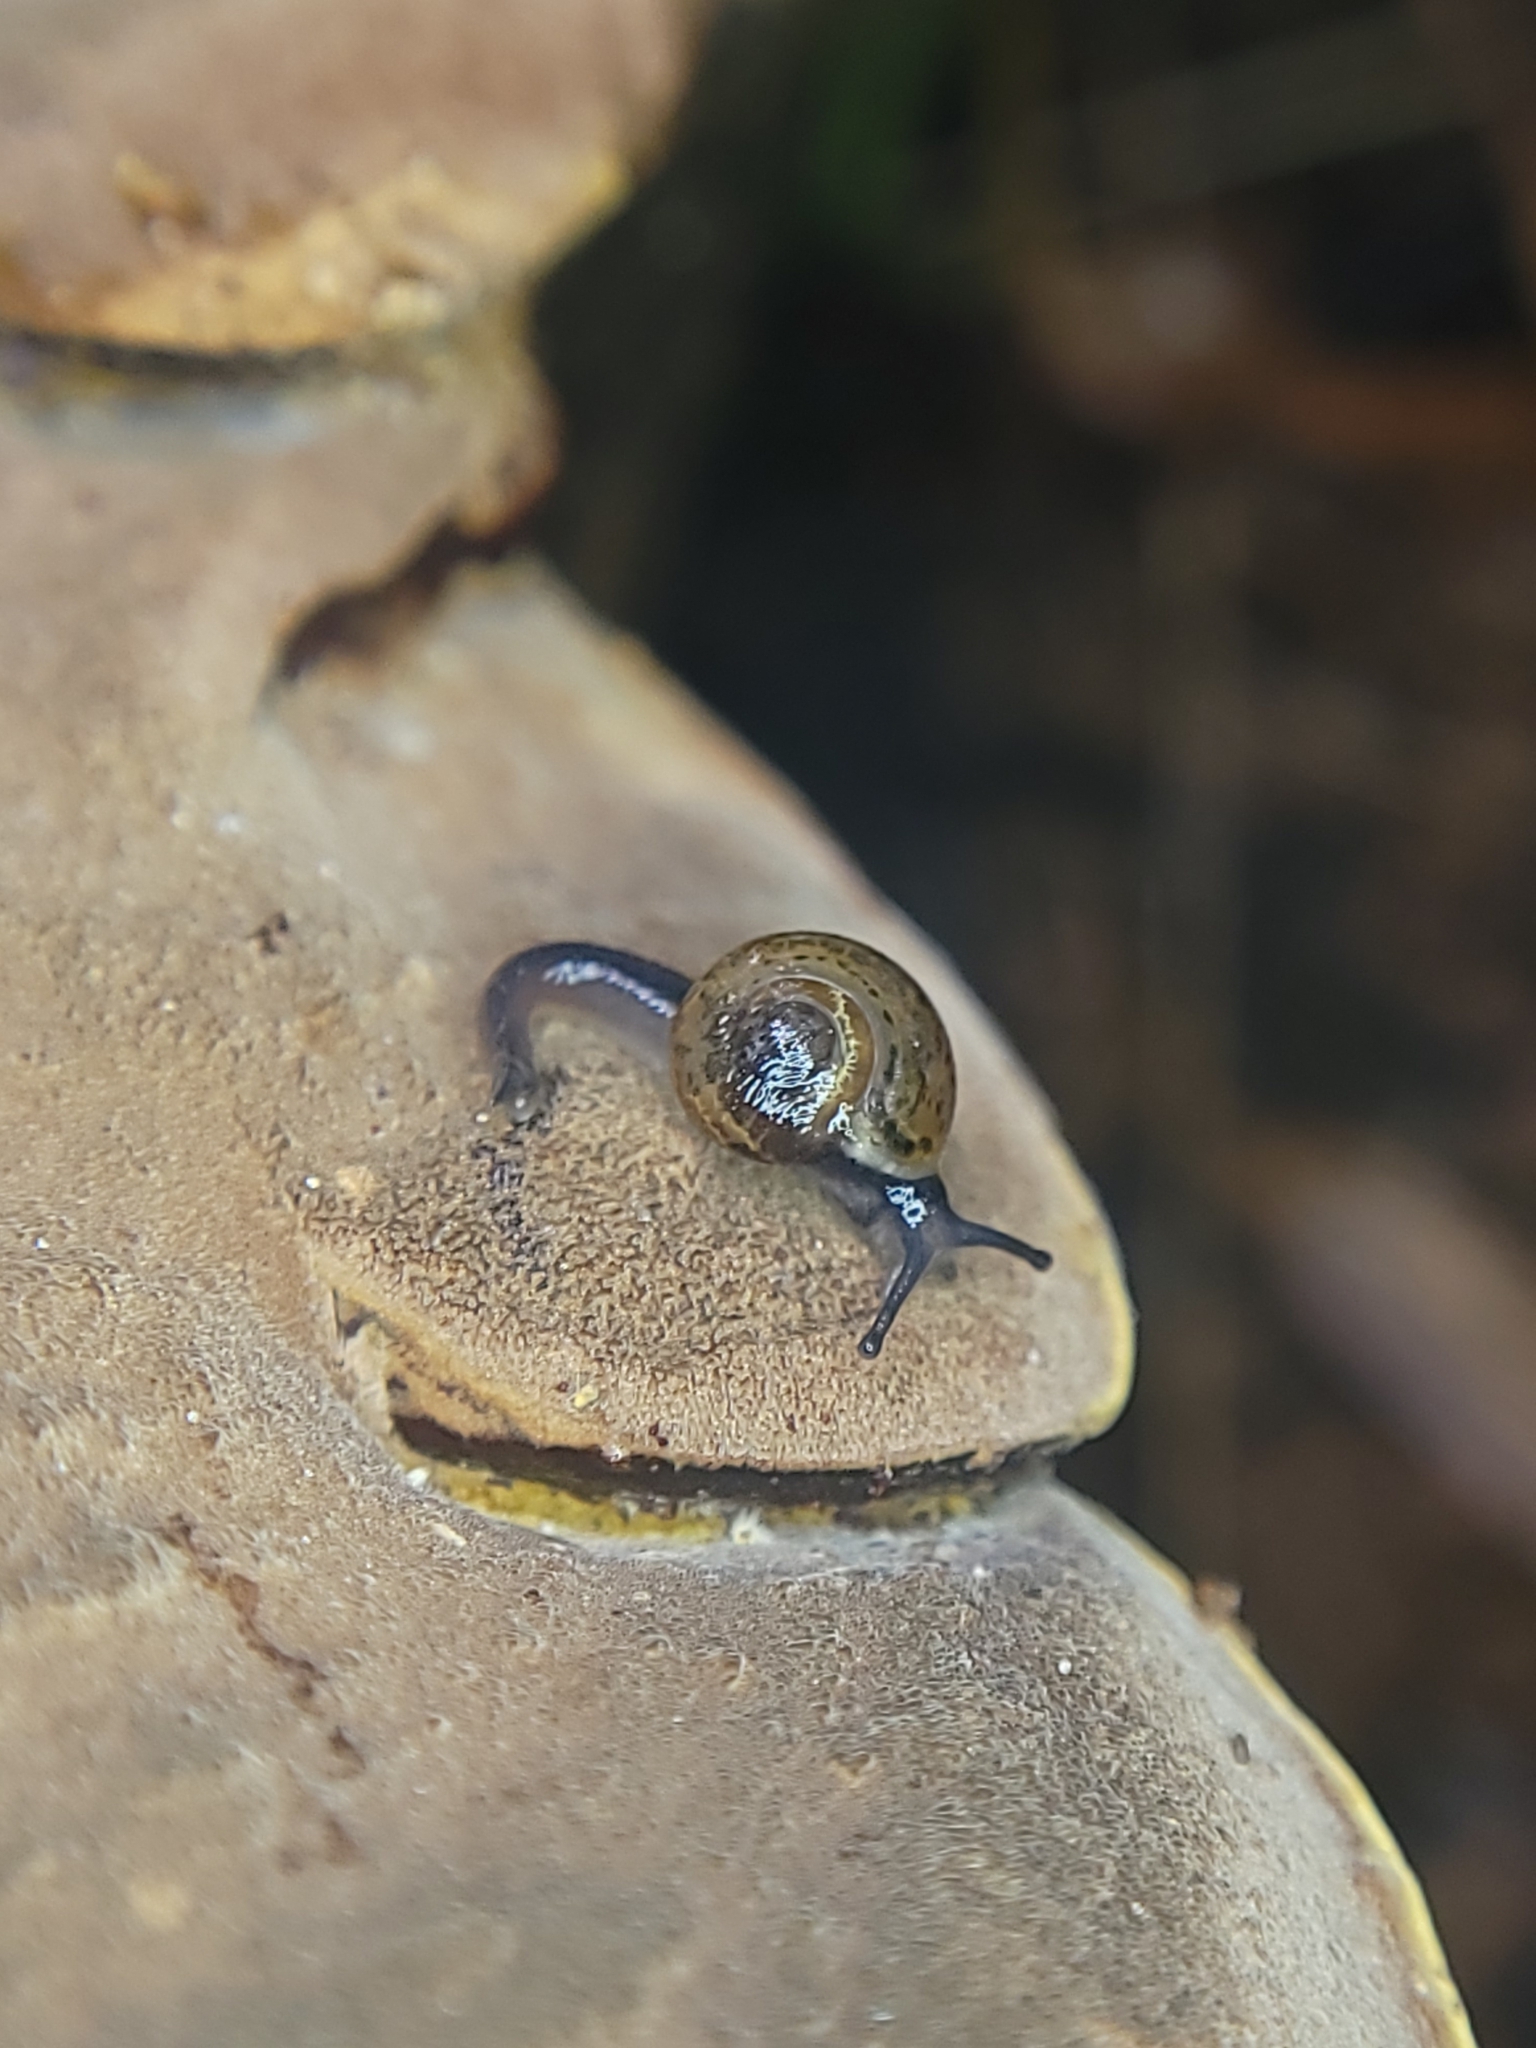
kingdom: Animalia
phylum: Mollusca
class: Gastropoda
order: Stylommatophora
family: Helicarionidae
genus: Ovachlamys
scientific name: Ovachlamys fulgens
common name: Jumping snail
